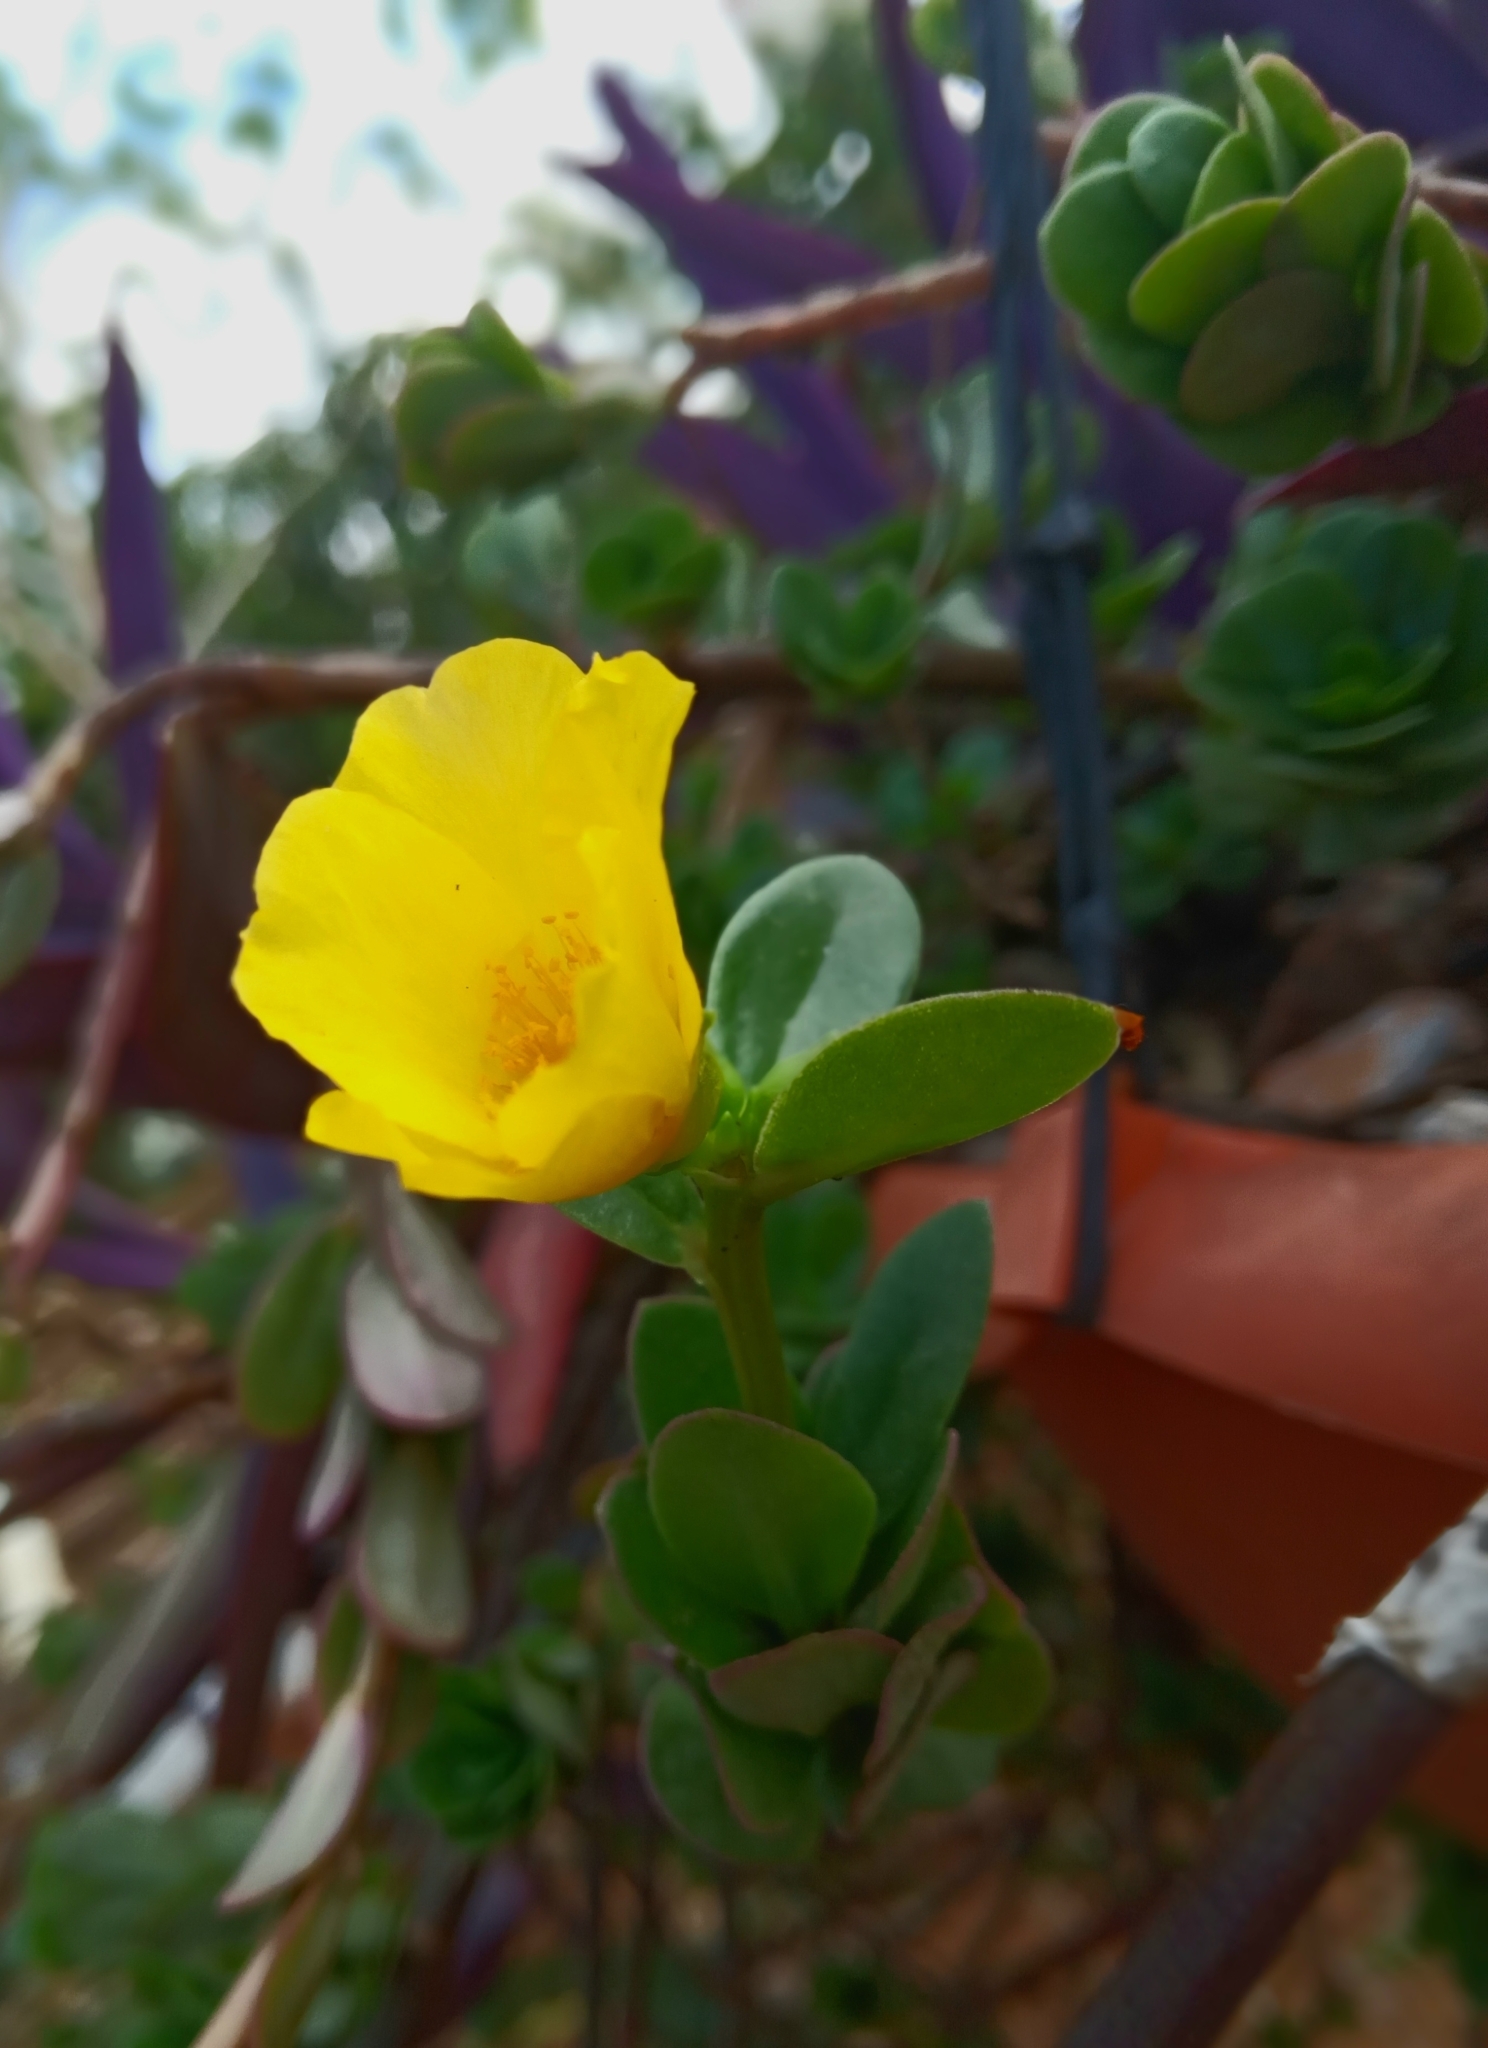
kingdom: Plantae
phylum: Tracheophyta
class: Magnoliopsida
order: Caryophyllales
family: Portulacaceae
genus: Portulaca
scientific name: Portulaca umbraticola
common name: Wingpod purslane
